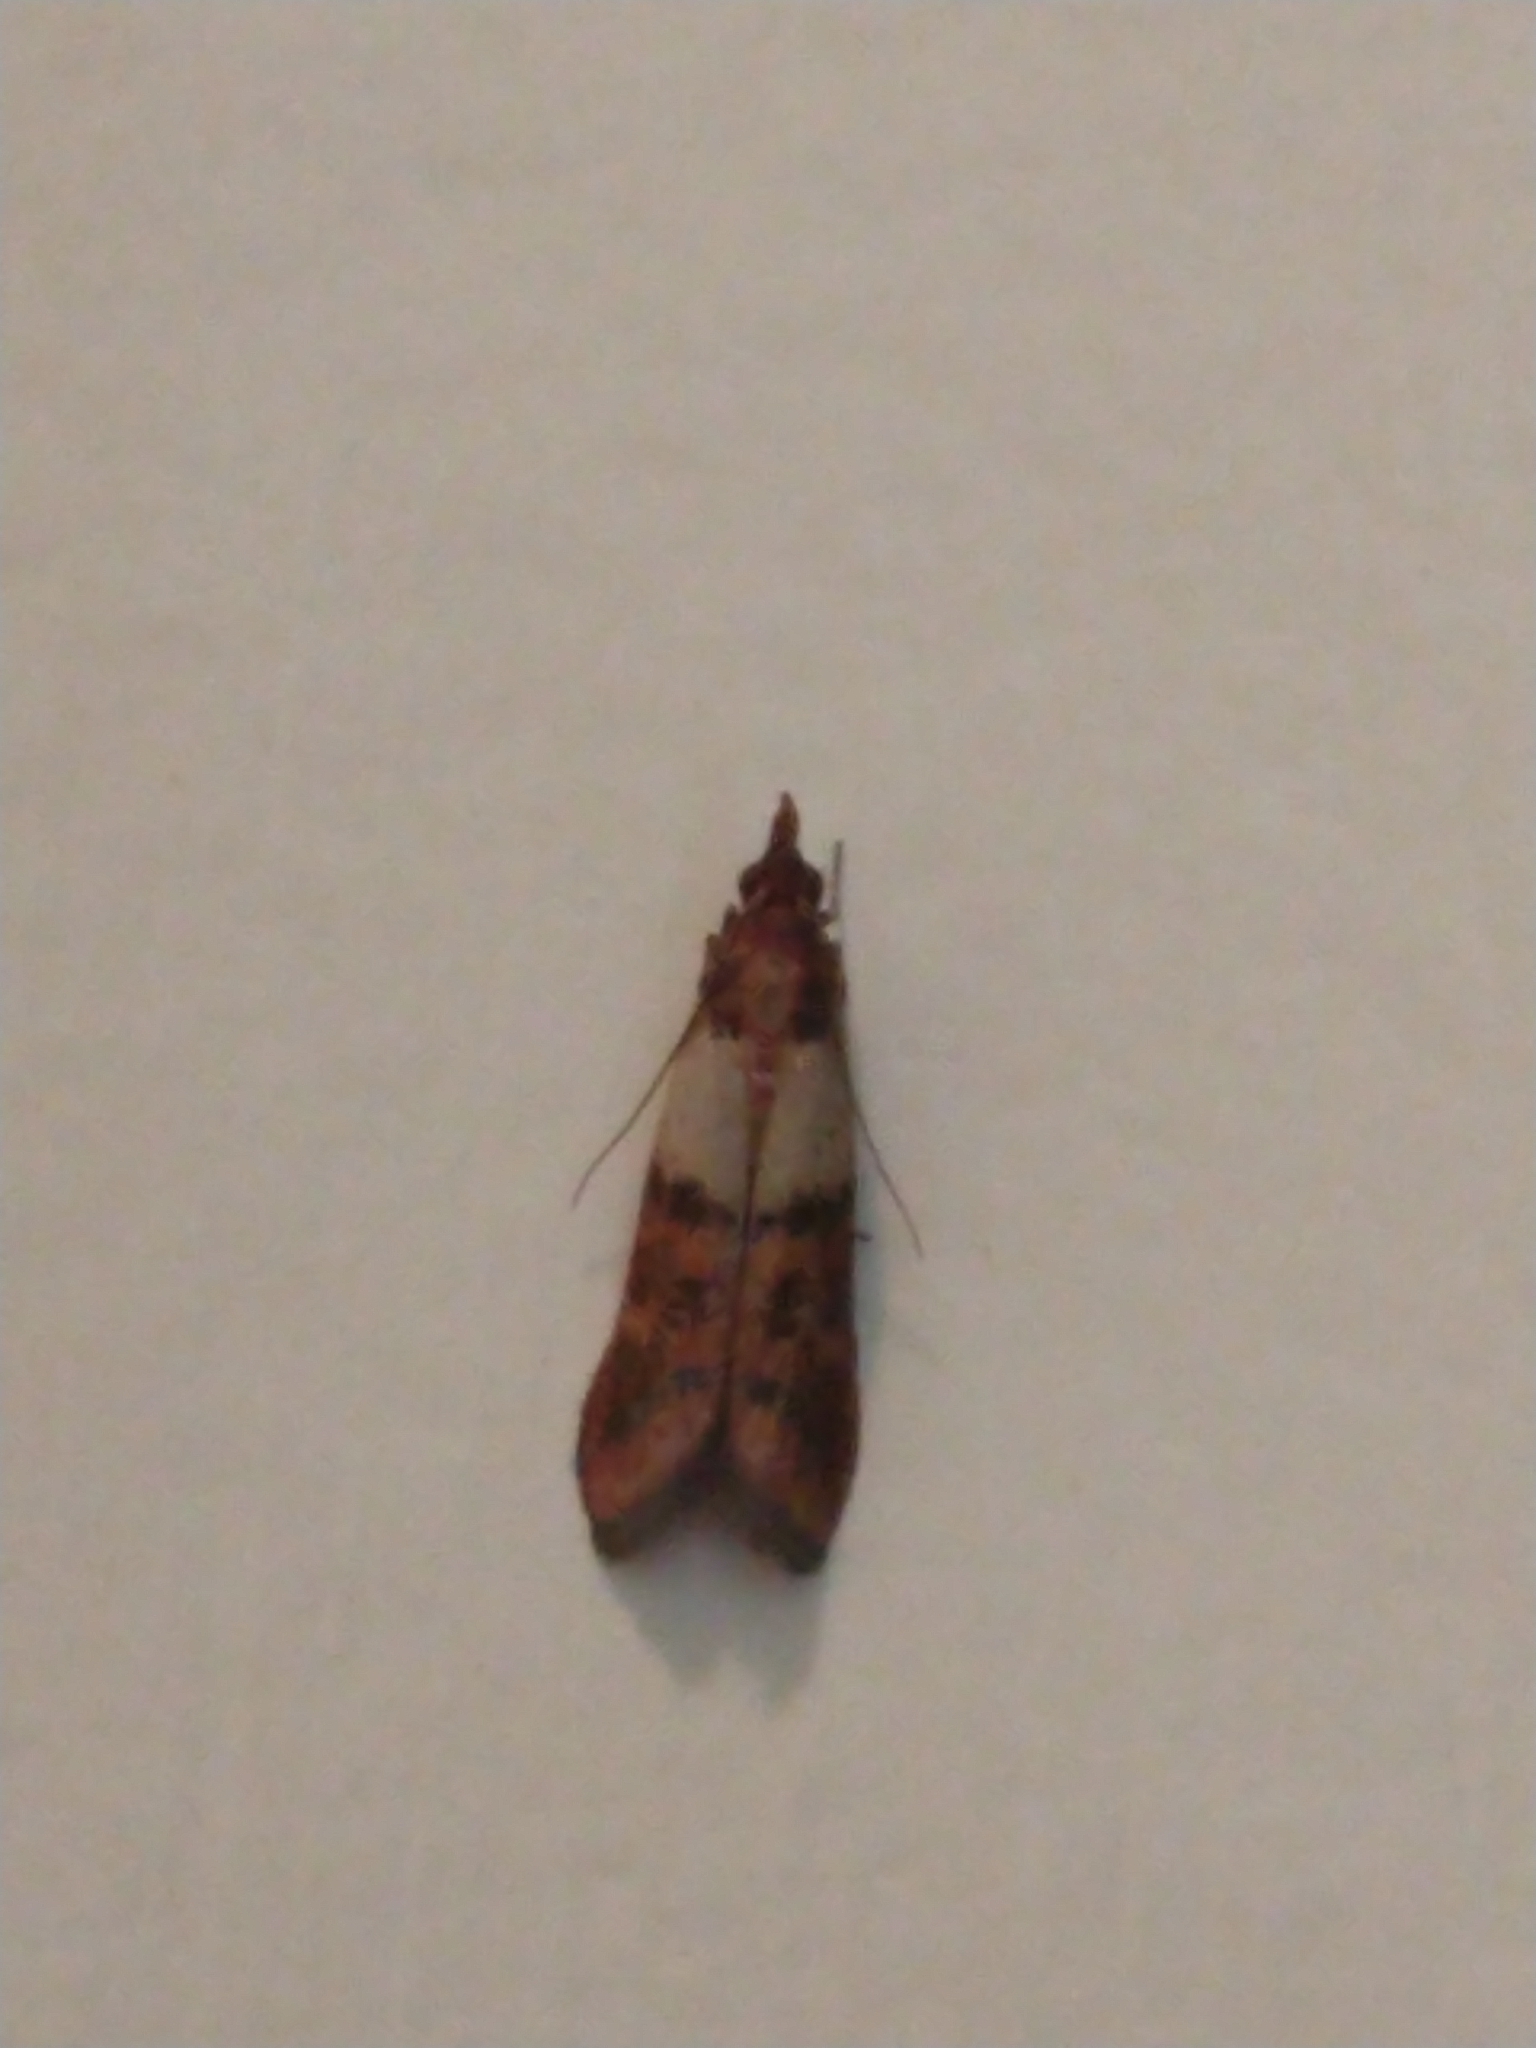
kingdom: Animalia
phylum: Arthropoda
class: Insecta
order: Lepidoptera
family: Pyralidae
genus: Plodia
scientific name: Plodia interpunctella
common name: Indian meal moth
